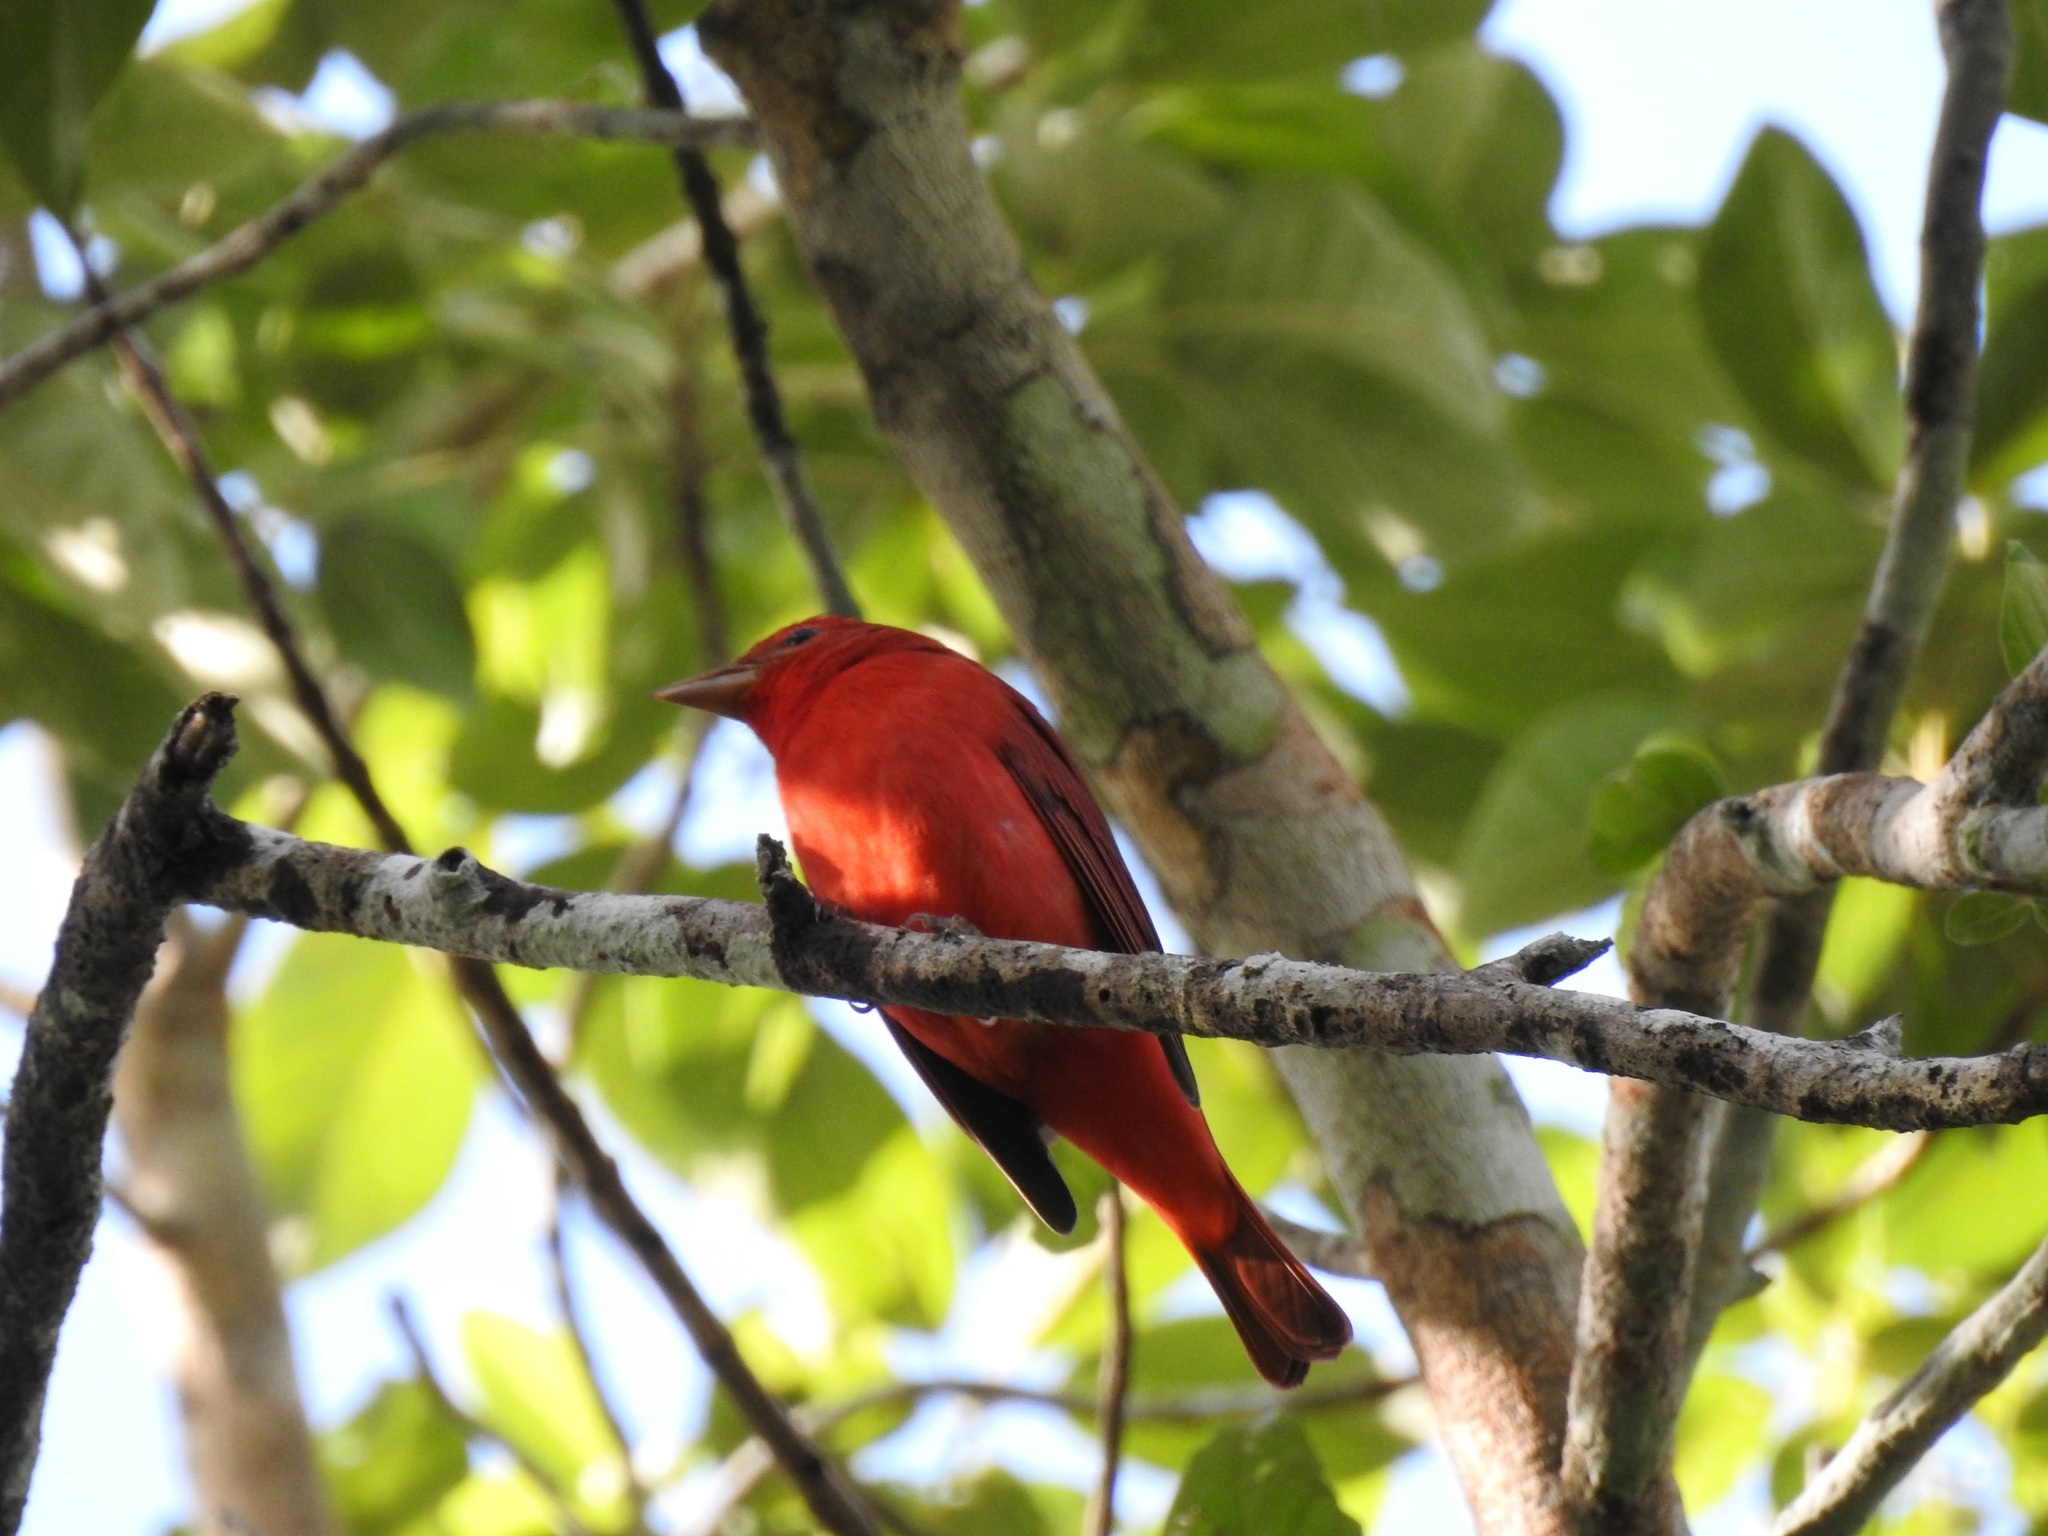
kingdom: Animalia
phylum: Chordata
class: Aves
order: Passeriformes
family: Cardinalidae
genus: Piranga
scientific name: Piranga rubra
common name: Summer tanager
